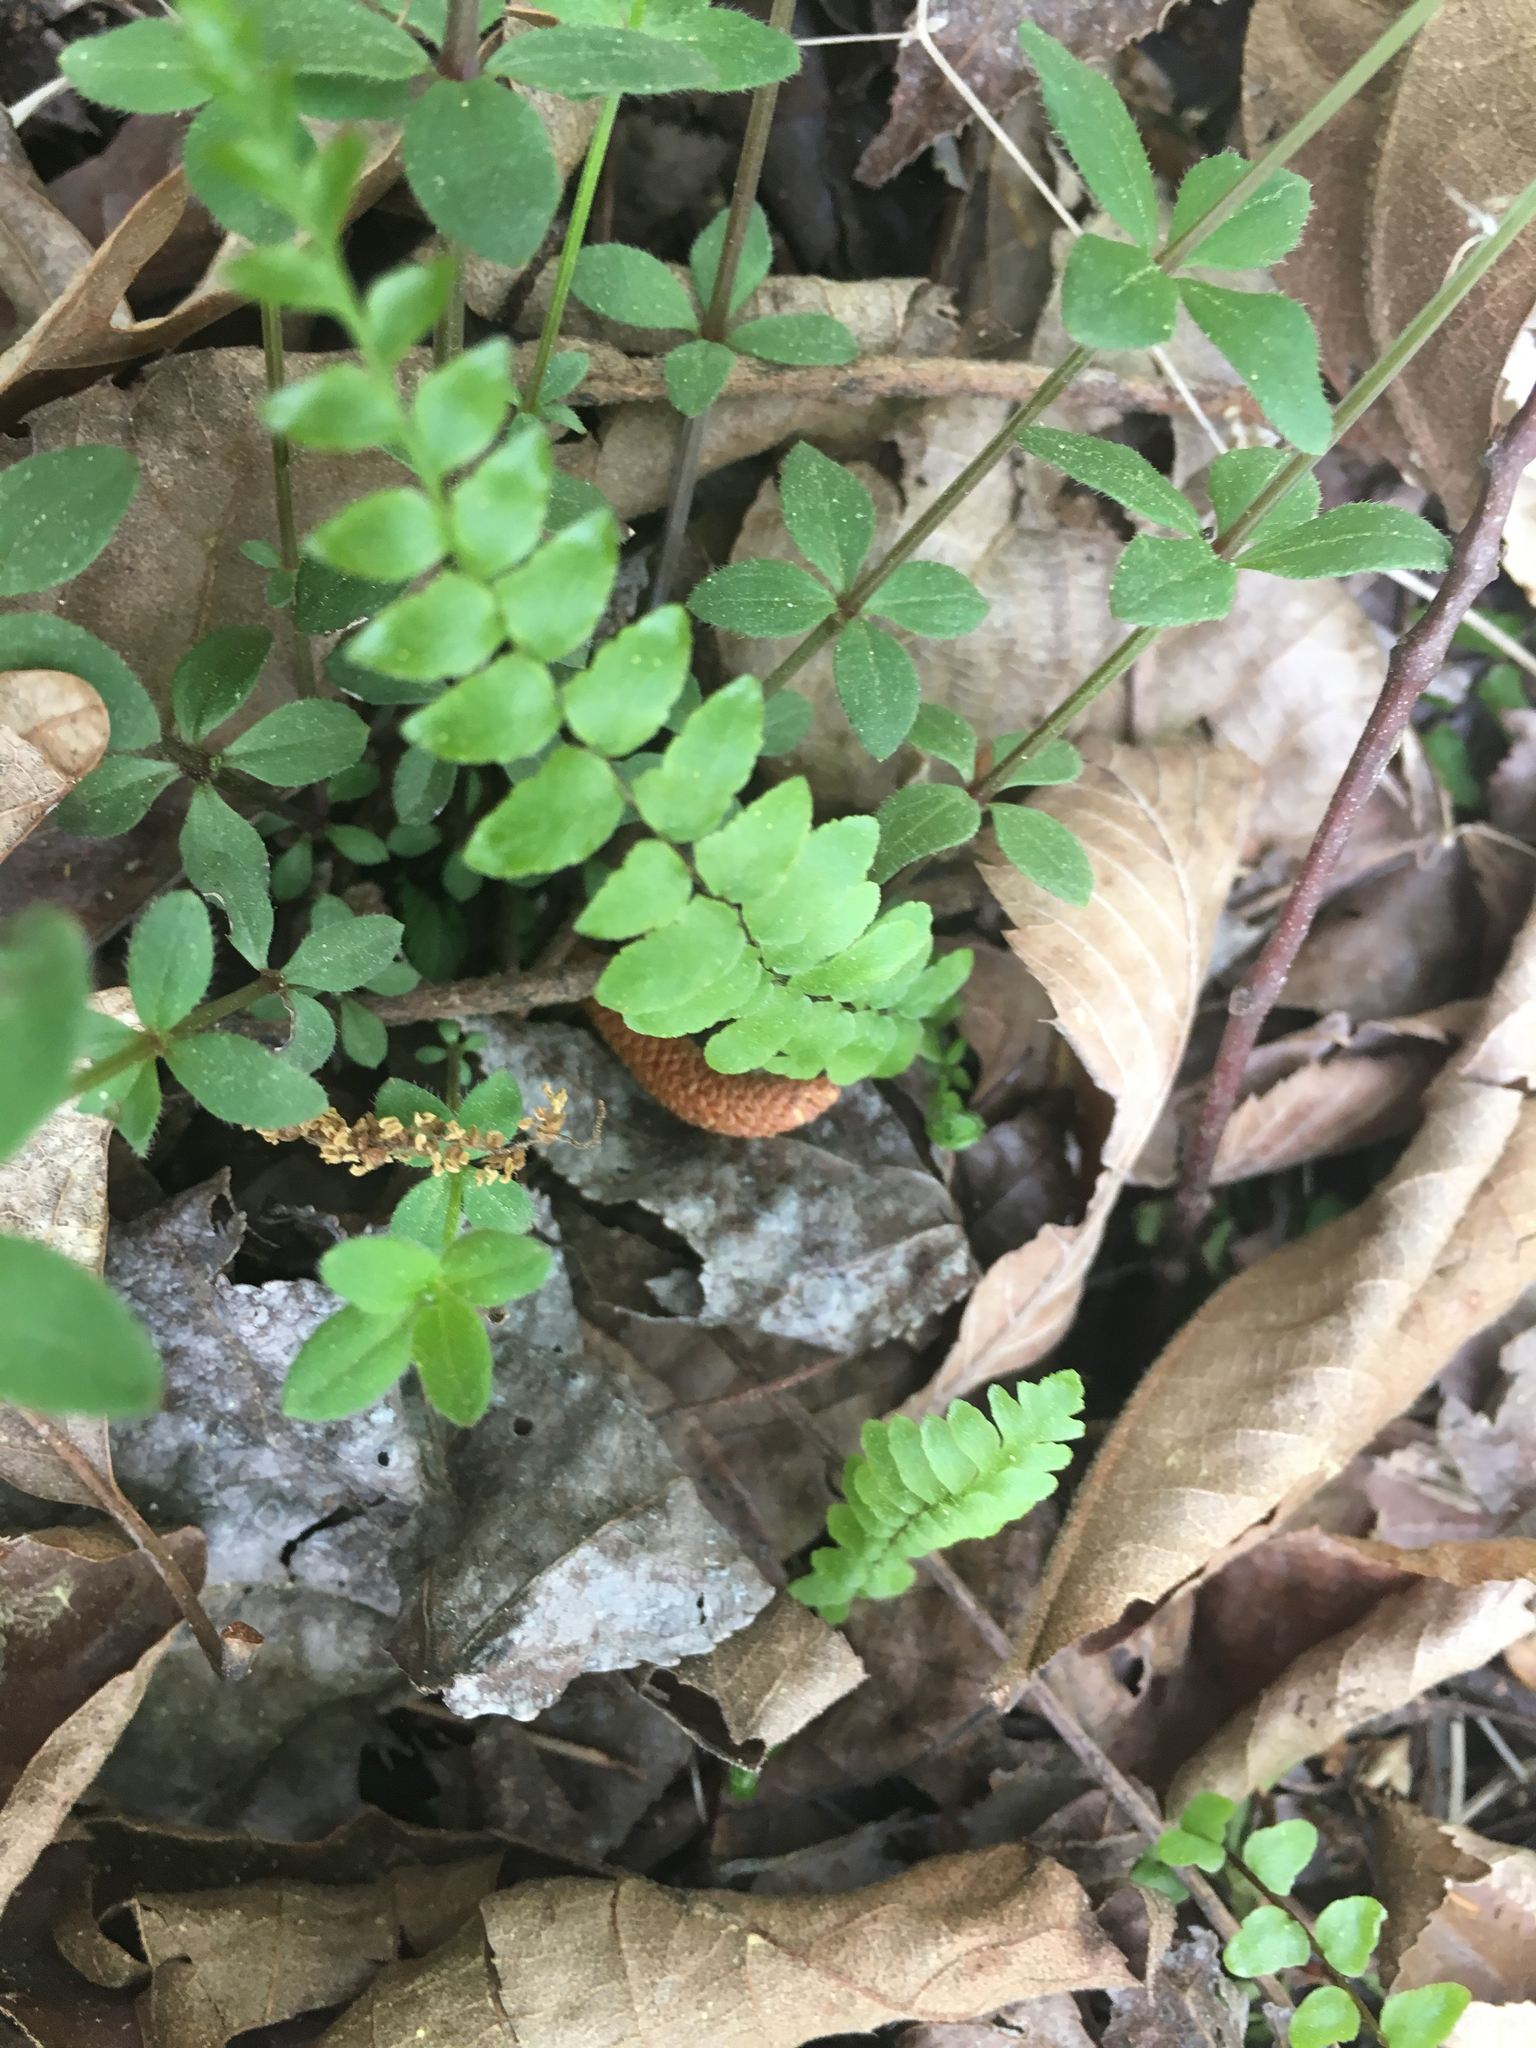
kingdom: Plantae
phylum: Tracheophyta
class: Polypodiopsida
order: Polypodiales
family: Aspleniaceae
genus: Asplenium
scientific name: Asplenium platyneuron
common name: Ebony spleenwort
